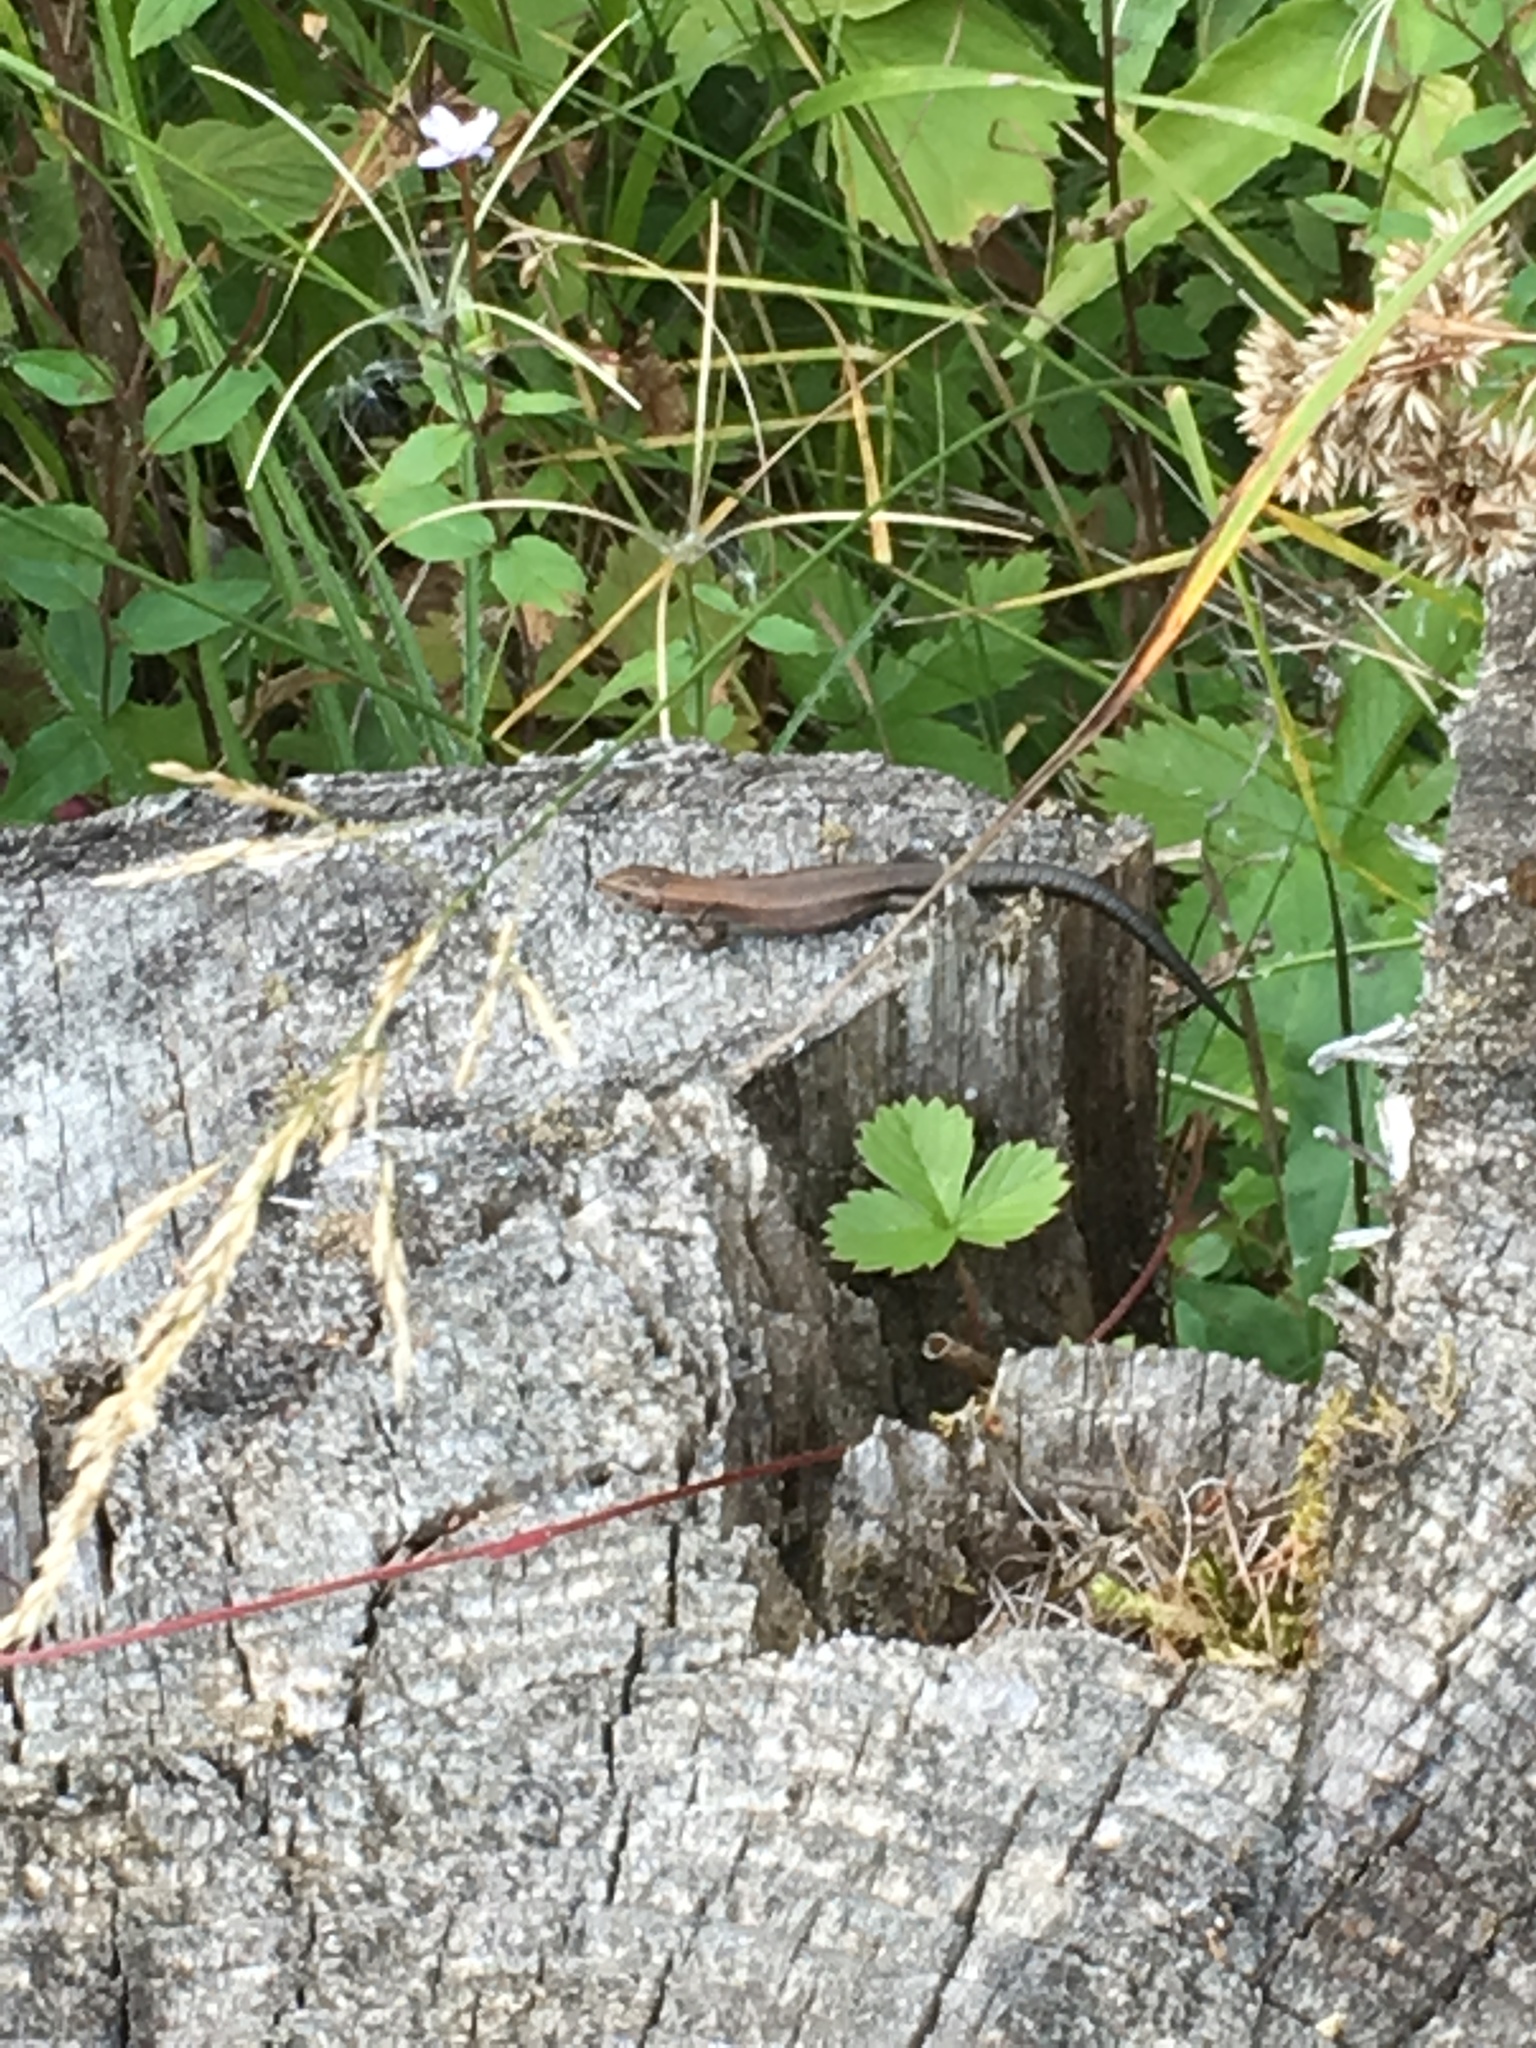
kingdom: Animalia
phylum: Chordata
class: Squamata
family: Lacertidae
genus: Zootoca
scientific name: Zootoca vivipara
